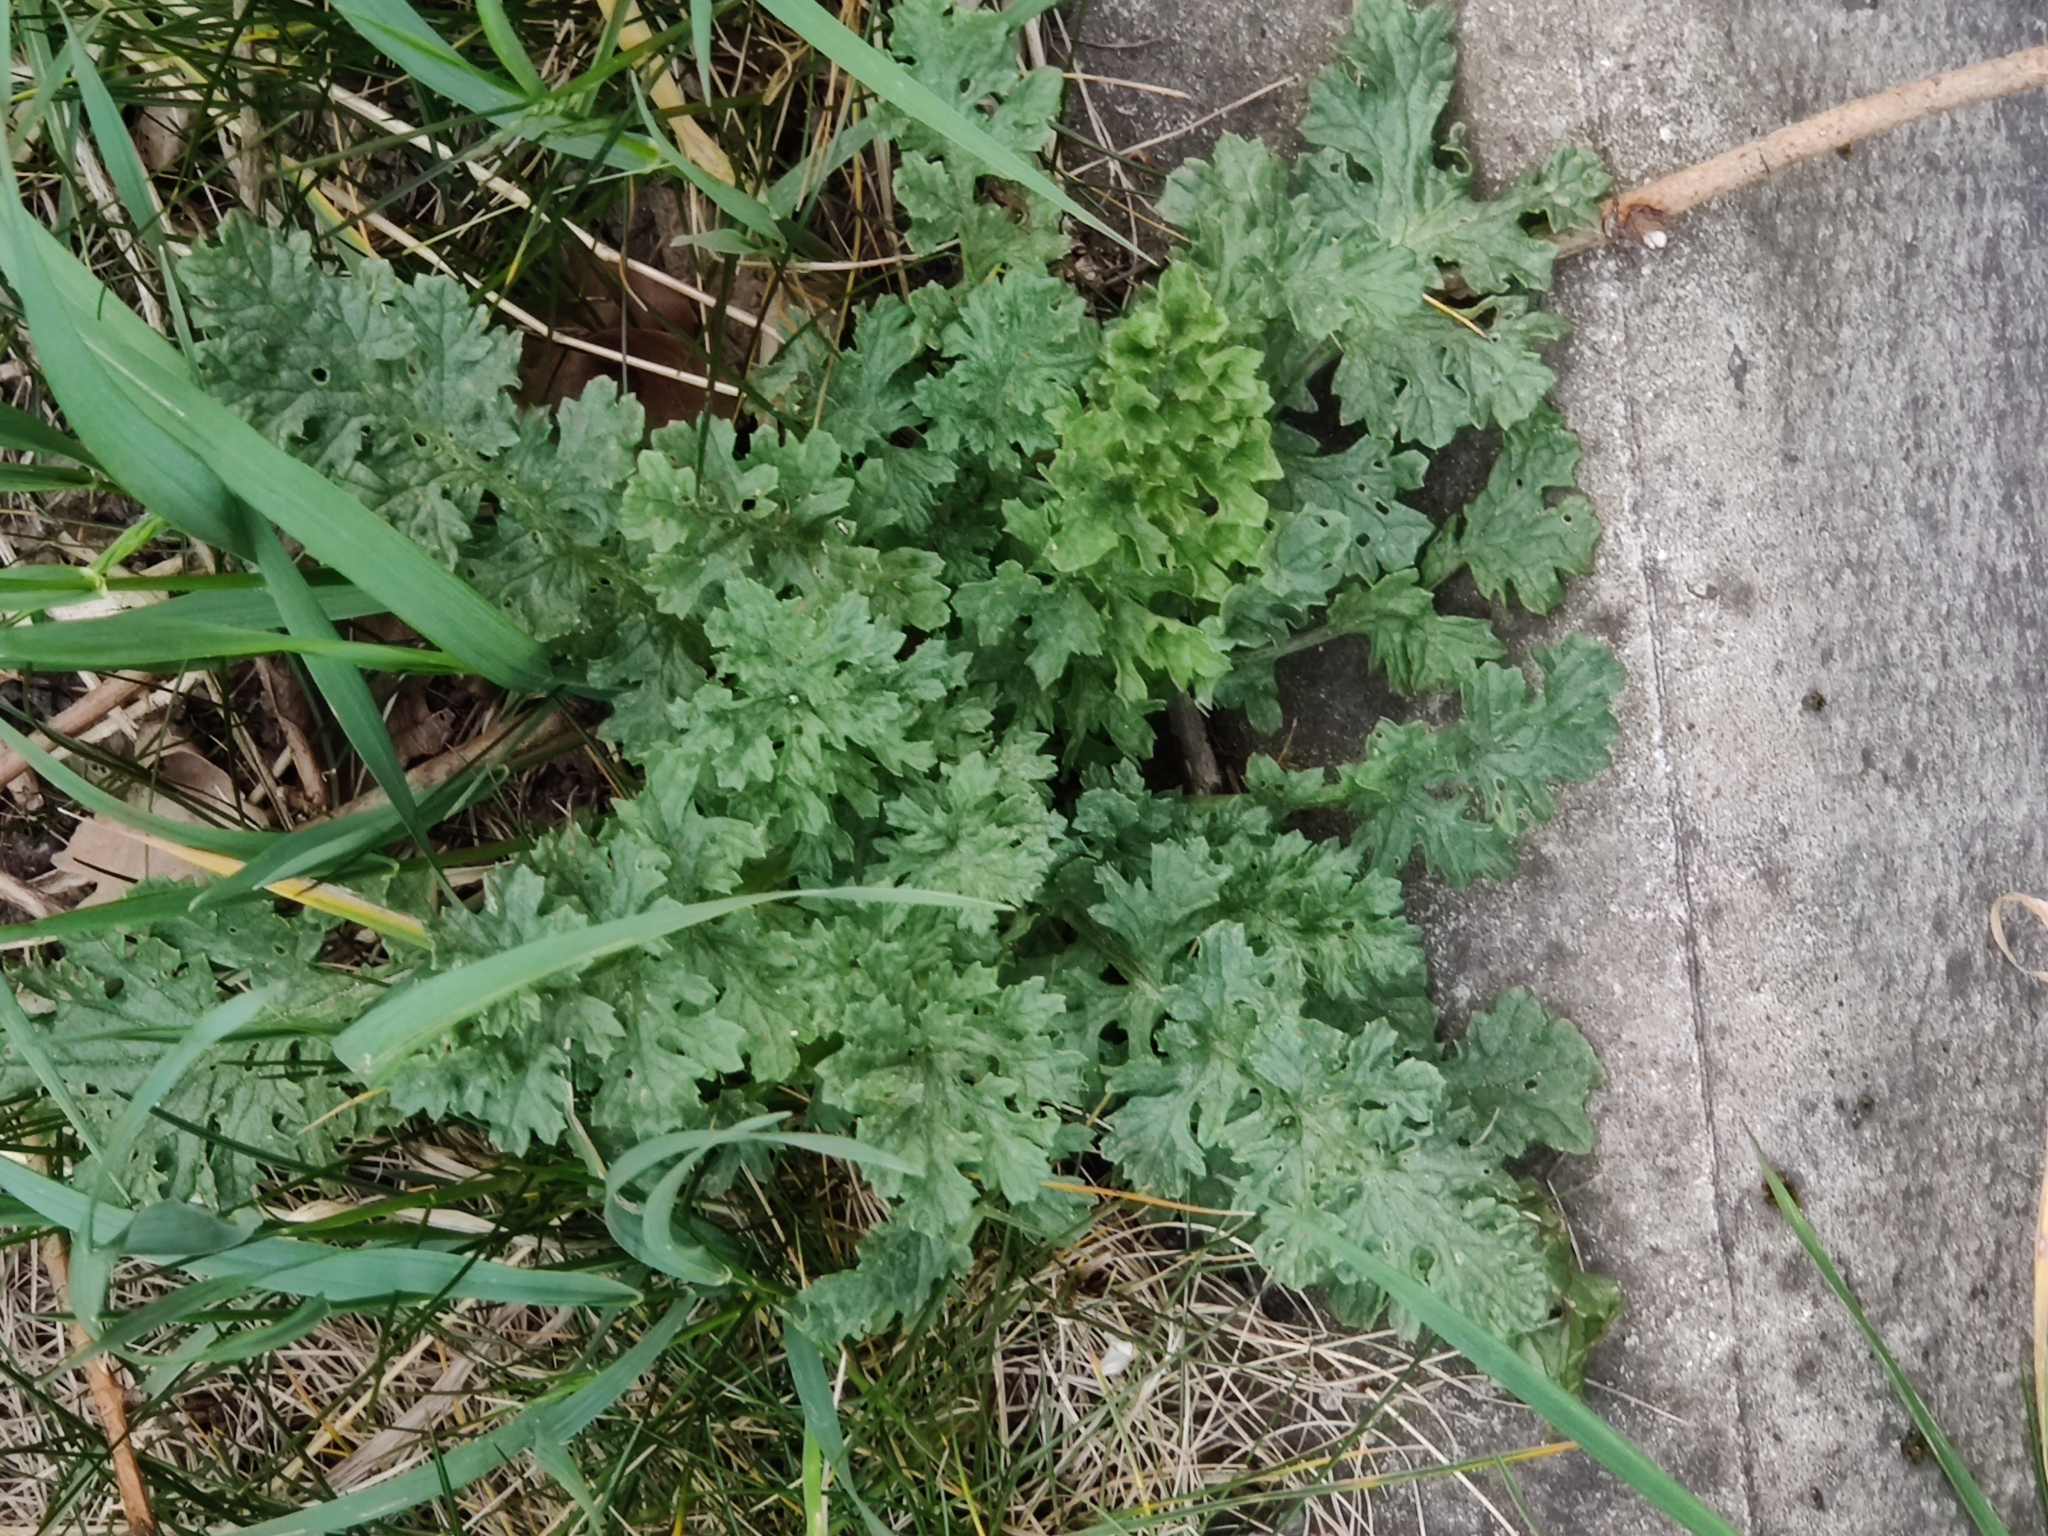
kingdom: Plantae
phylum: Tracheophyta
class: Magnoliopsida
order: Asterales
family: Asteraceae
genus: Jacobaea
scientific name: Jacobaea vulgaris
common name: Stinking willie
